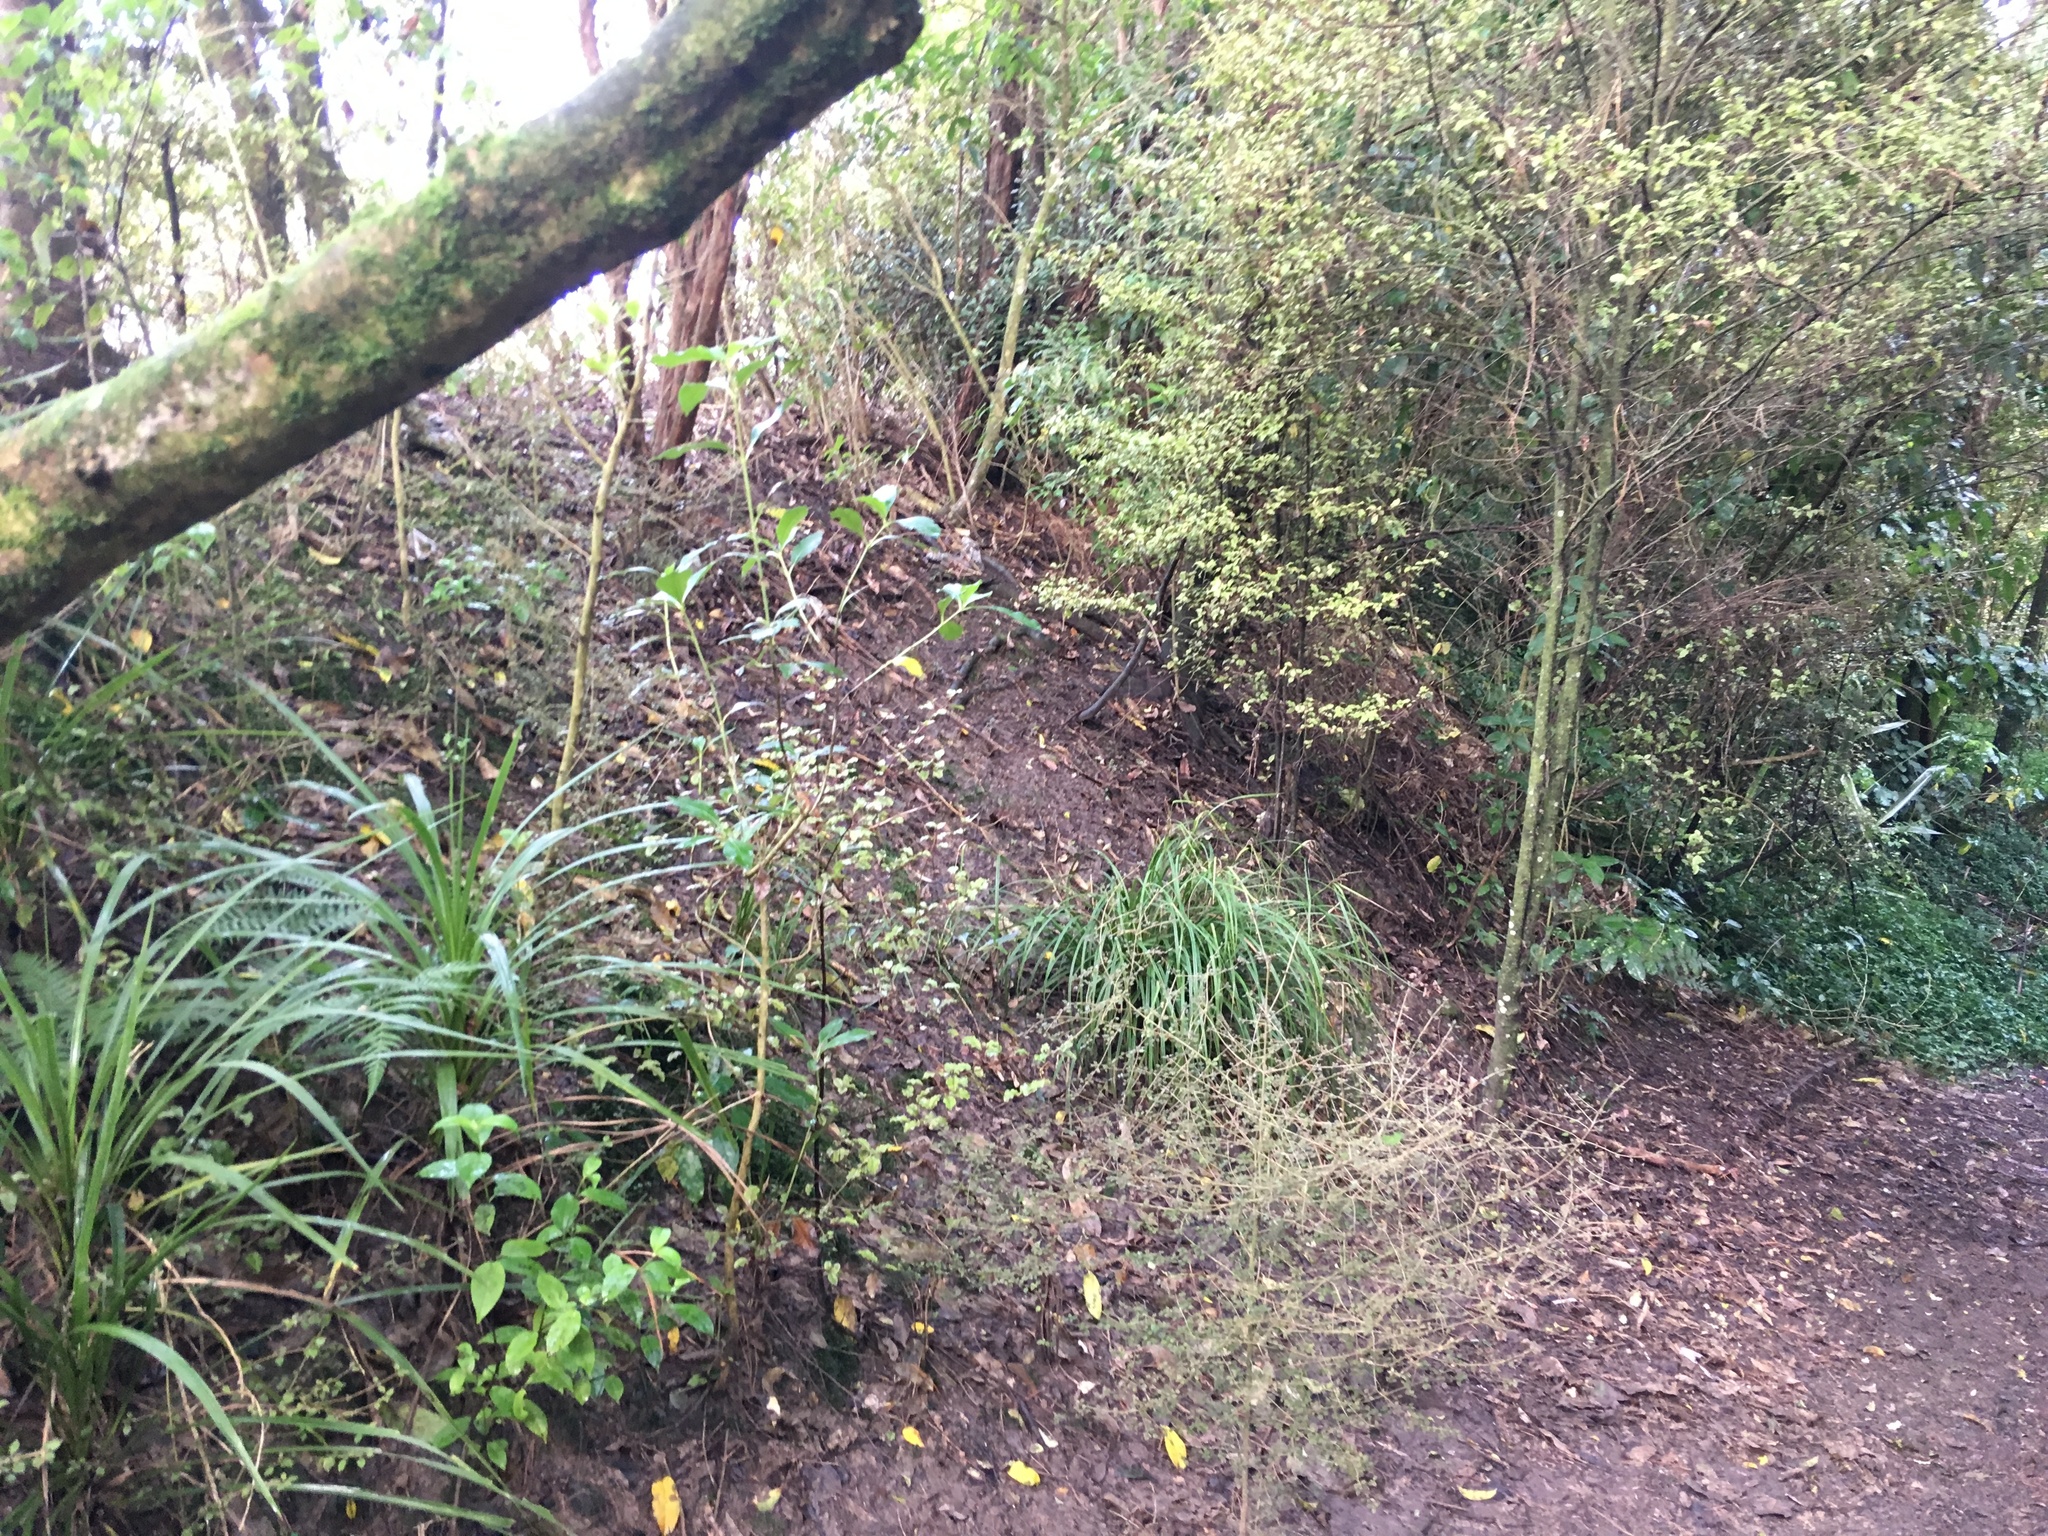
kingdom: Plantae
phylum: Tracheophyta
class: Magnoliopsida
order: Gentianales
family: Loganiaceae
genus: Geniostoma
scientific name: Geniostoma ligustrifolium
